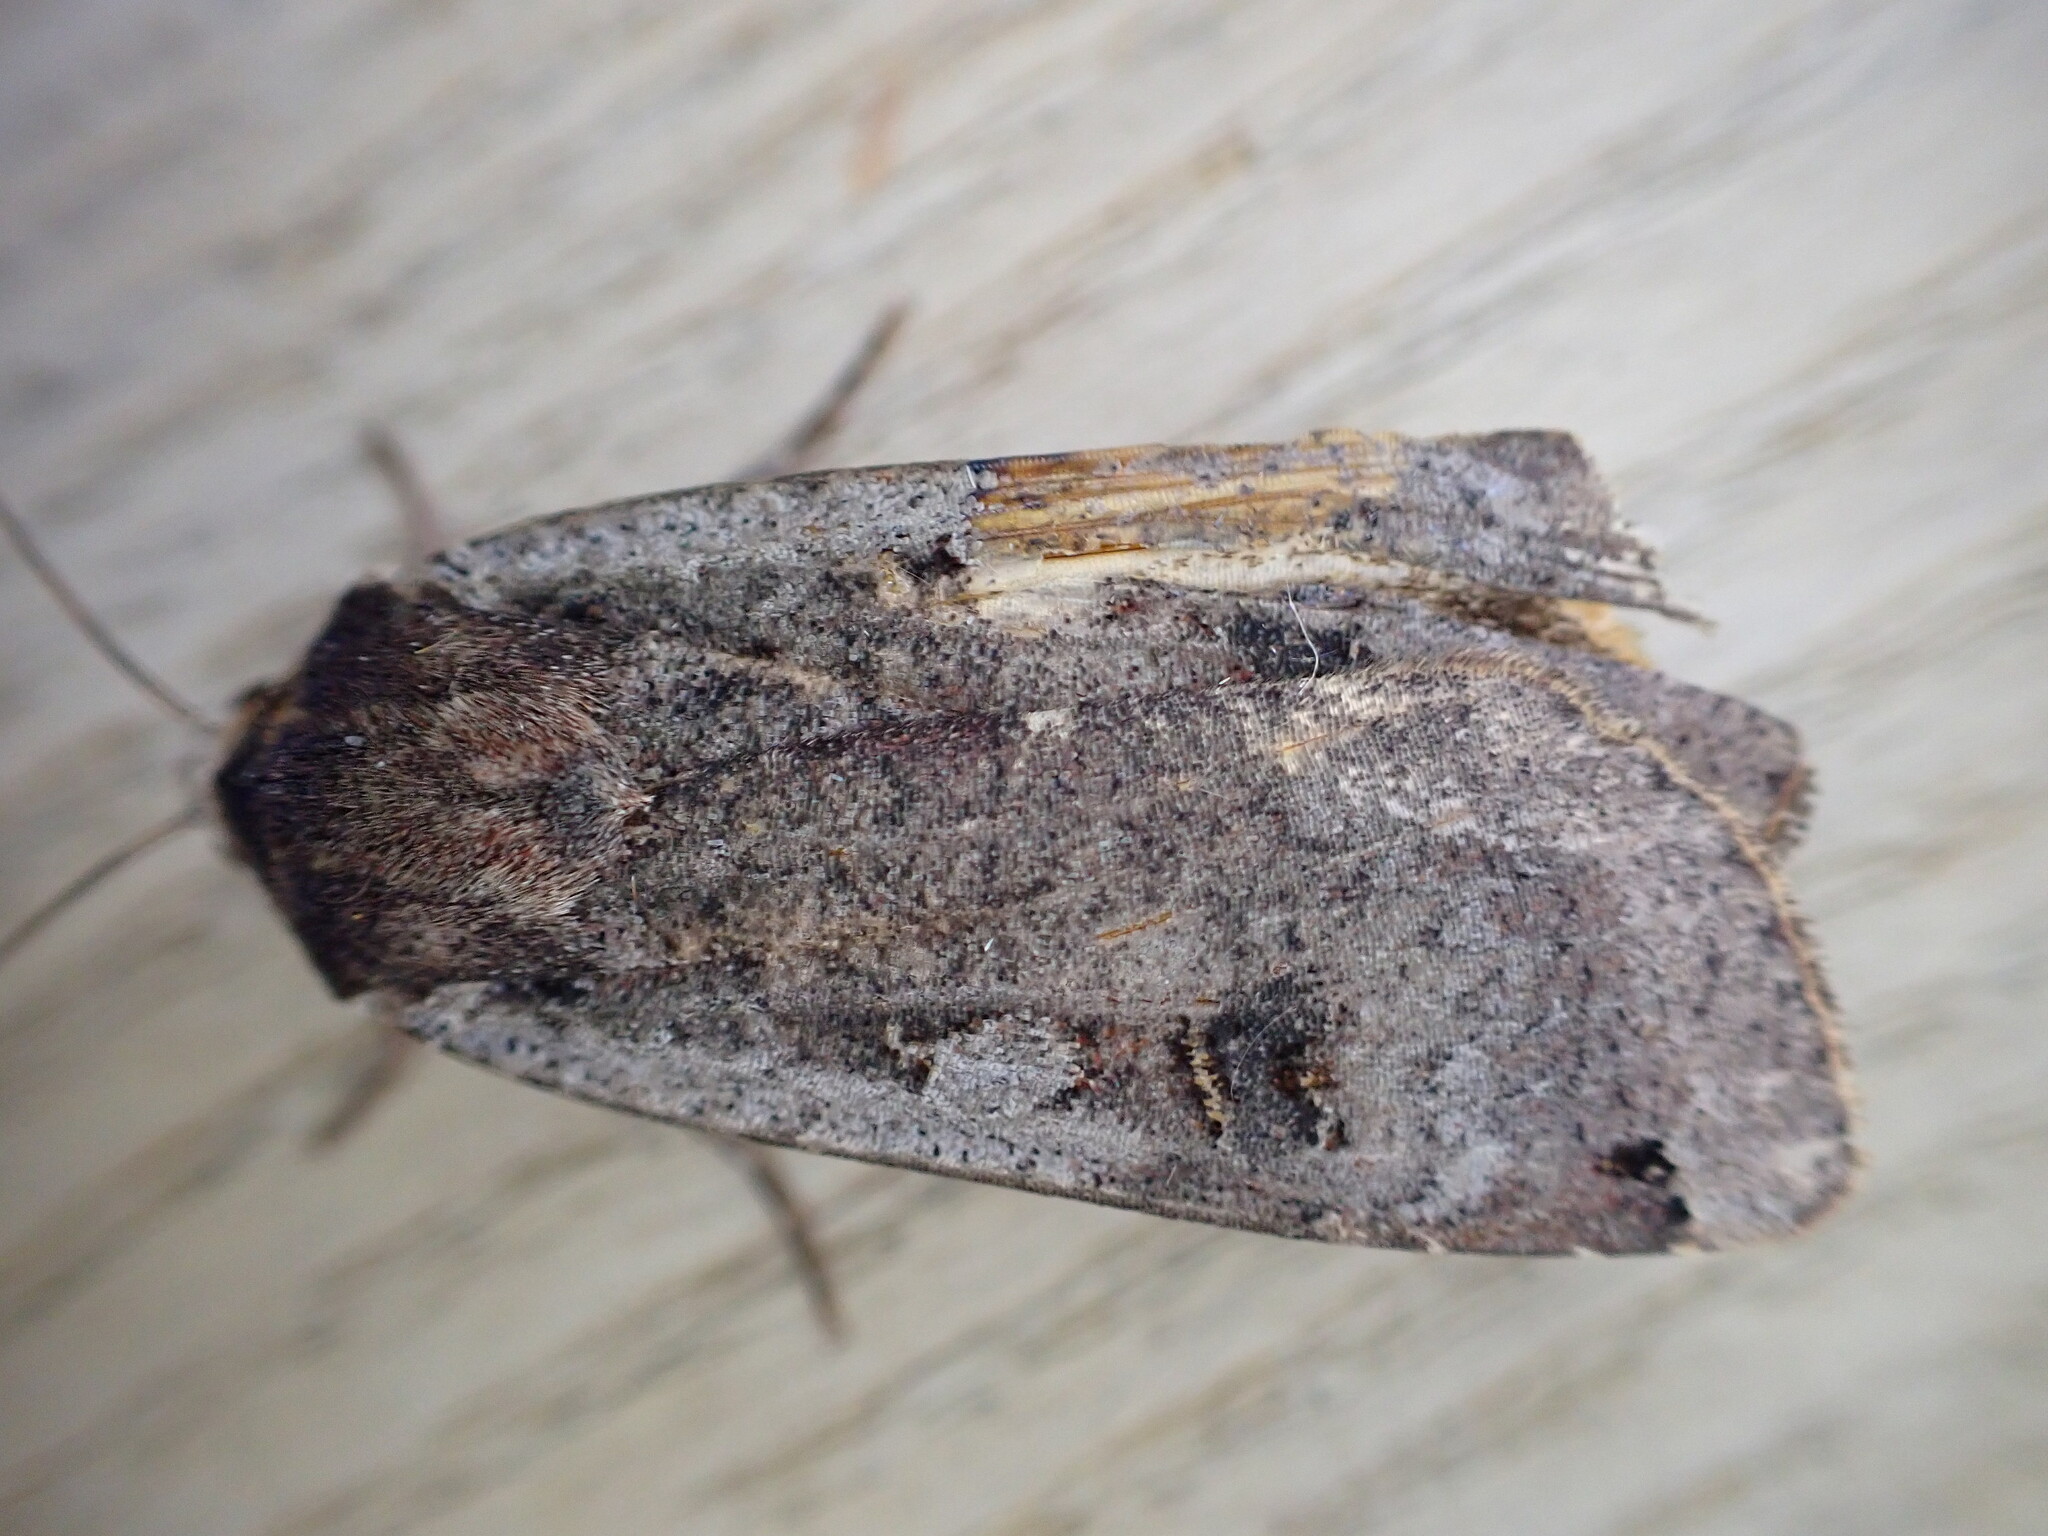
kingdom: Animalia
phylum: Arthropoda
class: Insecta
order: Lepidoptera
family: Noctuidae
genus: Noctua
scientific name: Noctua pronuba
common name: Large yellow underwing
